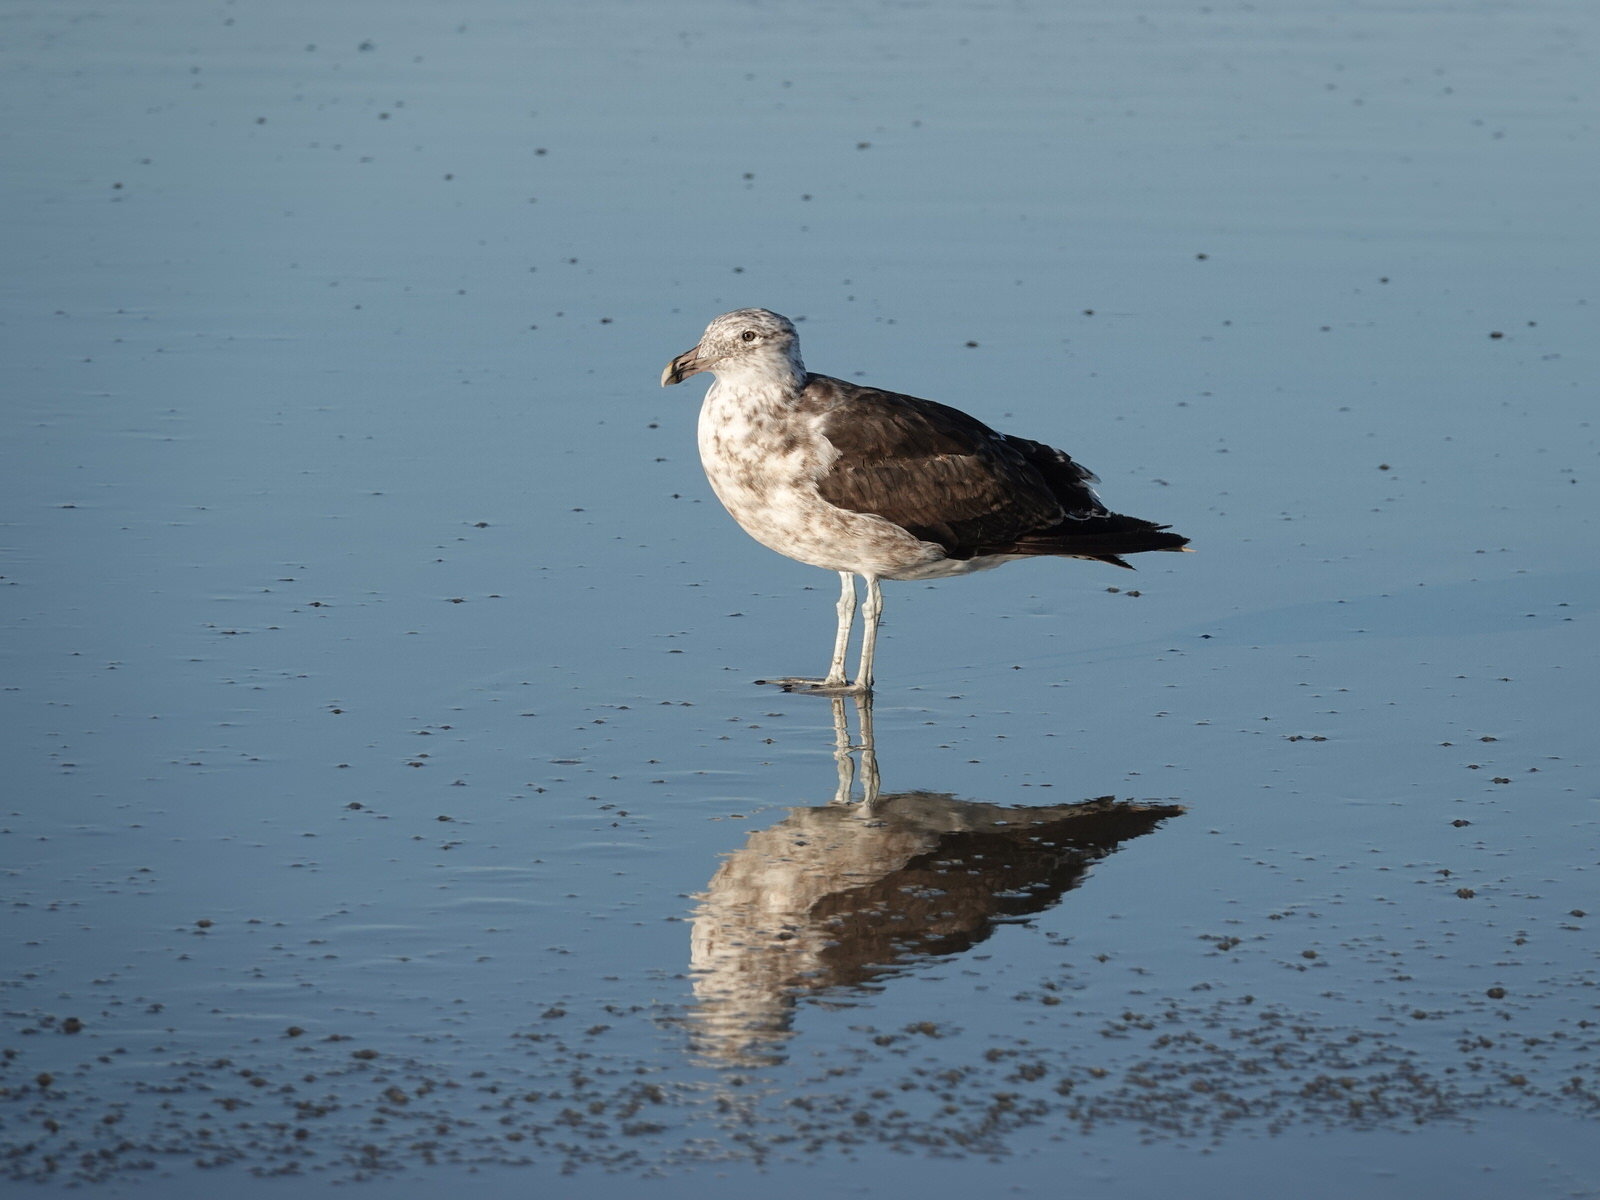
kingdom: Animalia
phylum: Chordata
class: Aves
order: Charadriiformes
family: Laridae
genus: Larus
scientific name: Larus dominicanus
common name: Kelp gull
